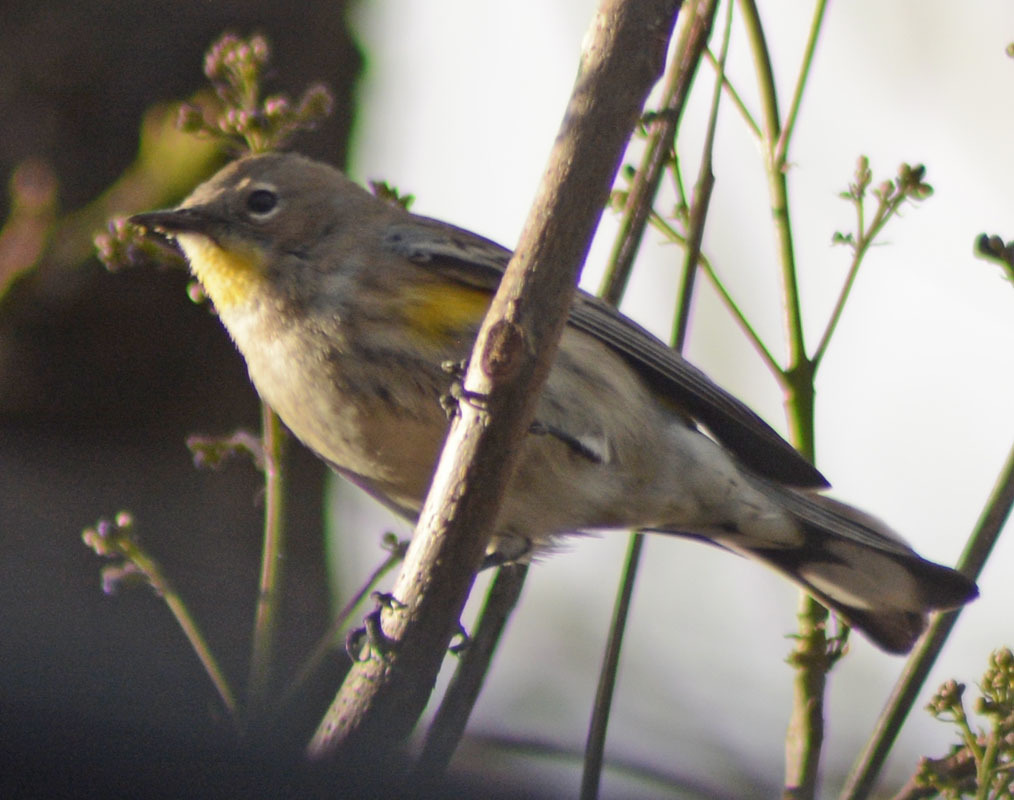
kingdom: Animalia
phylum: Chordata
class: Aves
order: Passeriformes
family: Parulidae
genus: Setophaga
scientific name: Setophaga auduboni
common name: Audubon's warbler
